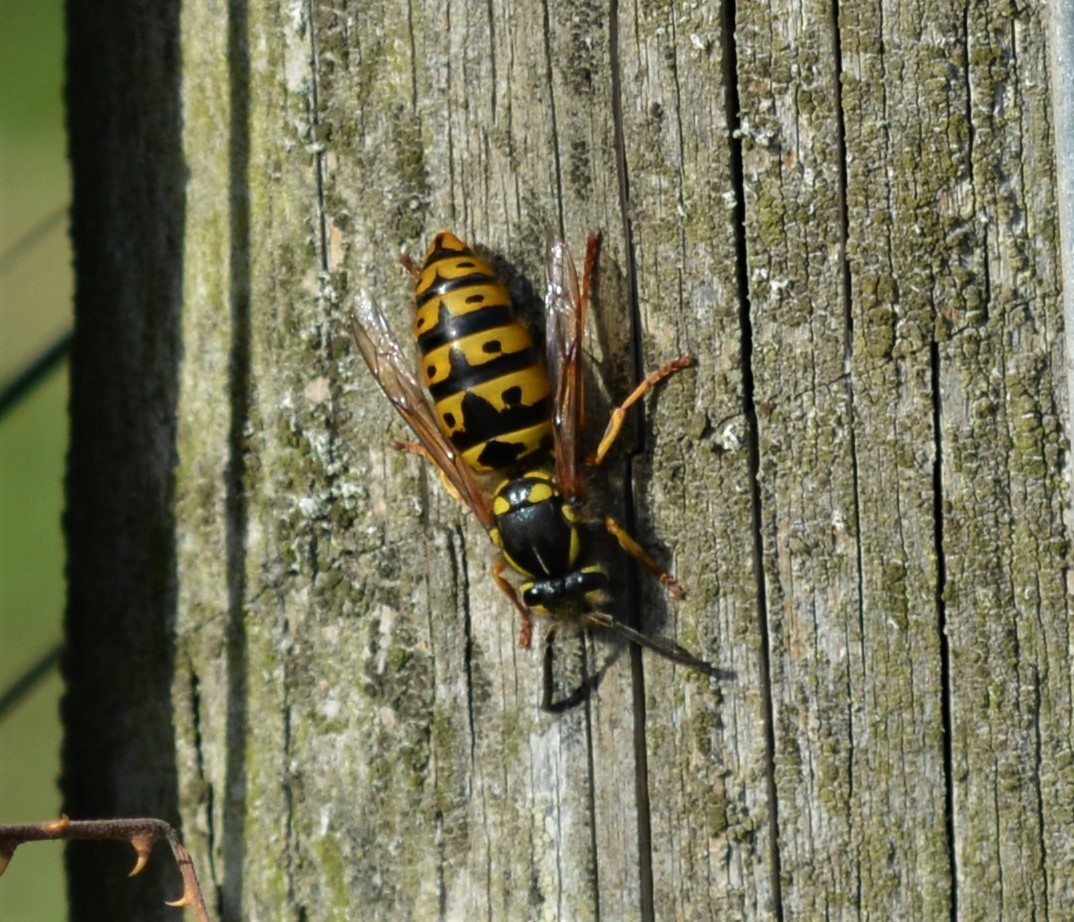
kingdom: Animalia
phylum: Arthropoda
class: Insecta
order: Hymenoptera
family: Vespidae
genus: Vespula
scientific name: Vespula germanica
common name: German wasp
